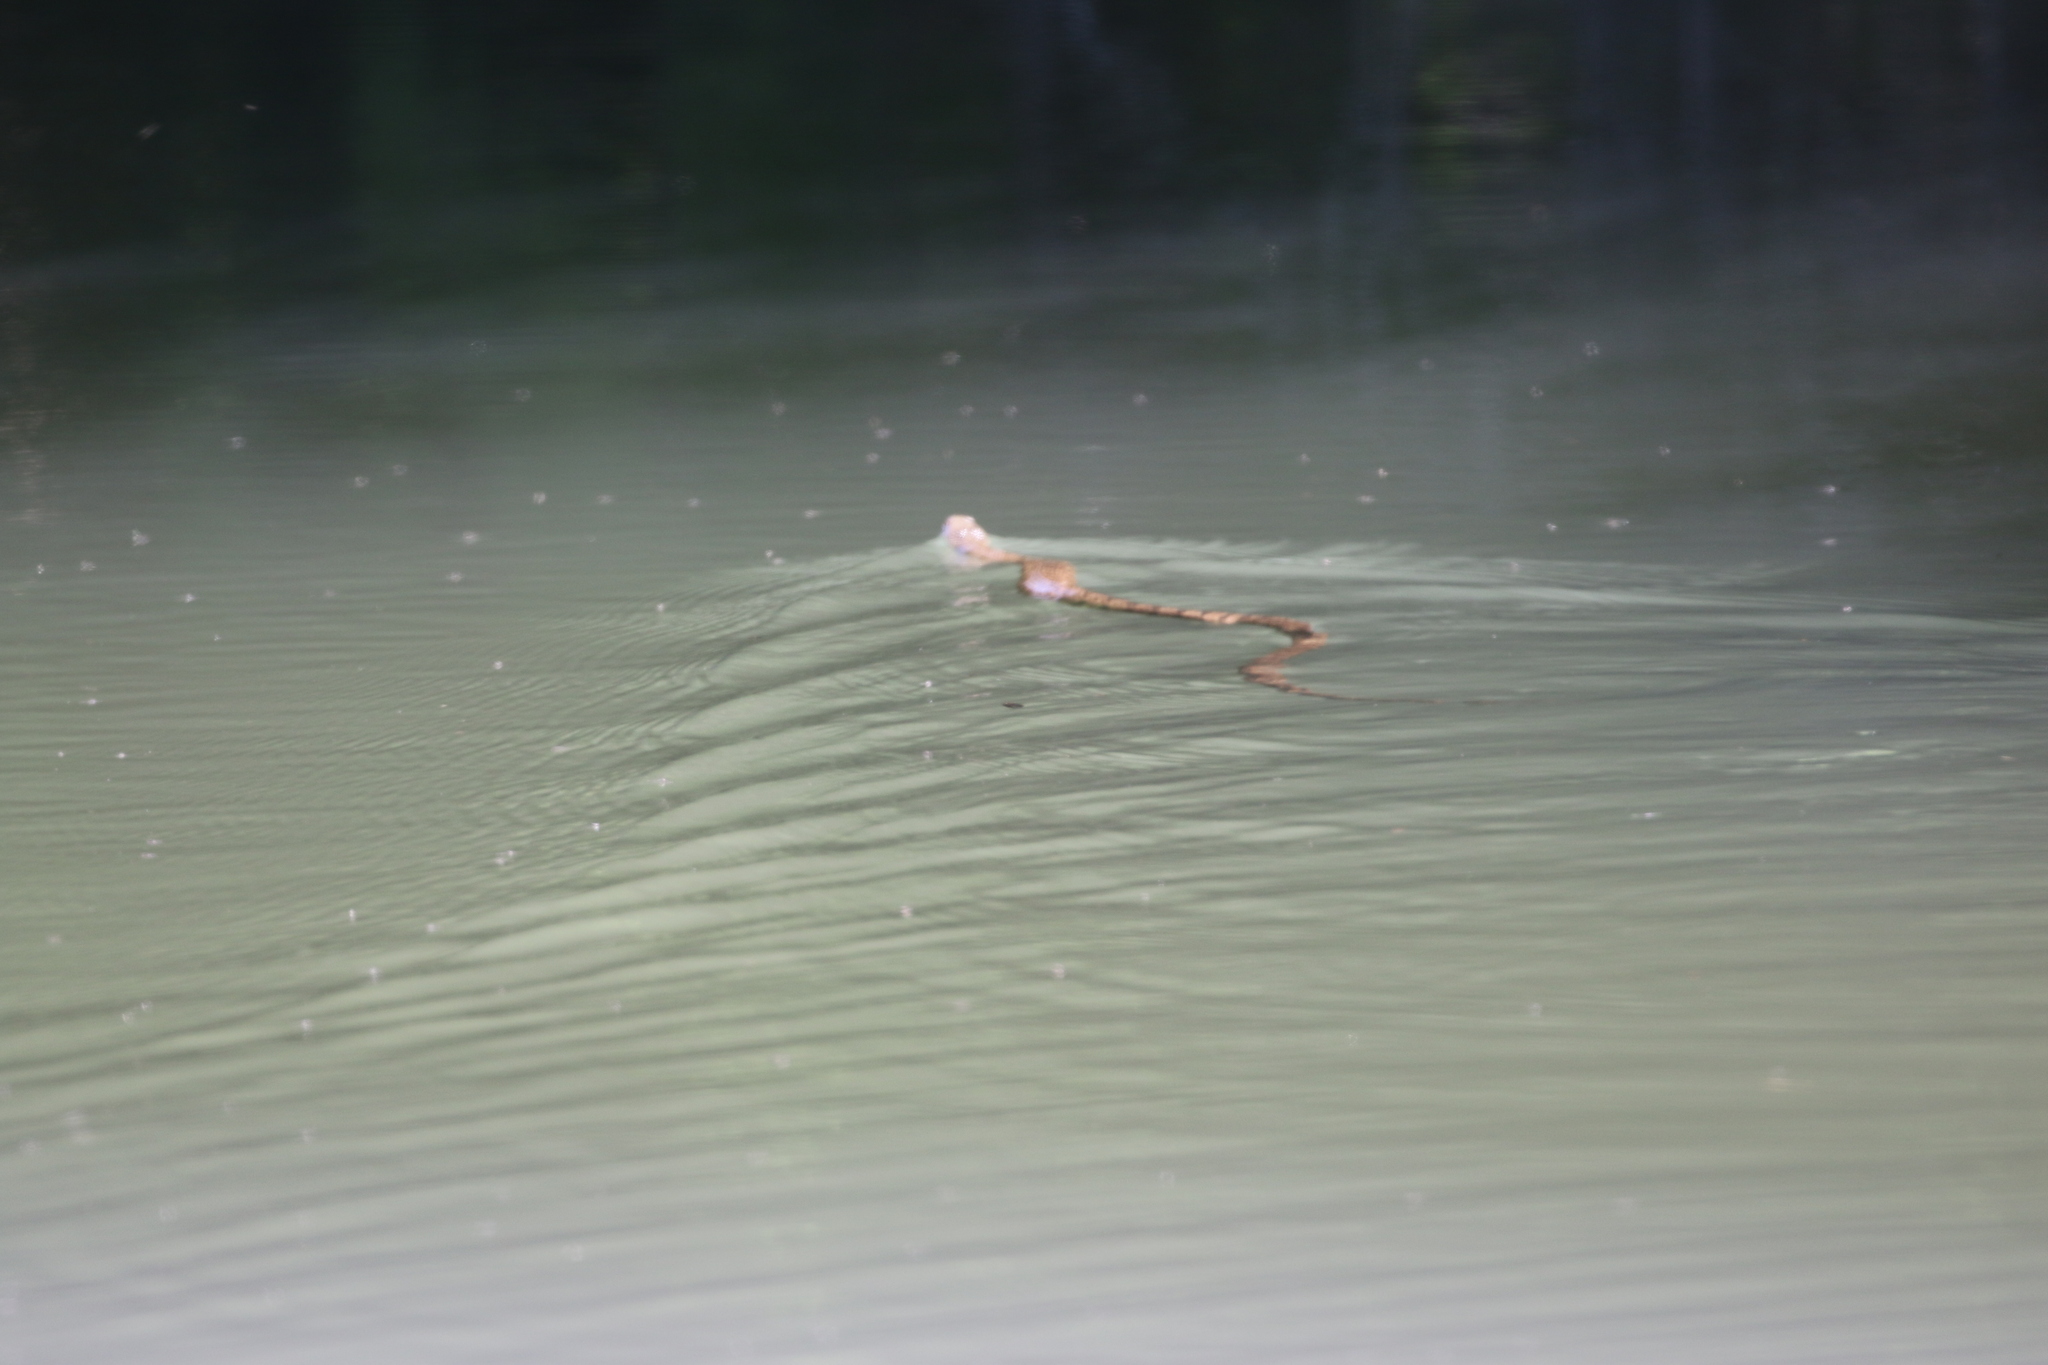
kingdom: Animalia
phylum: Chordata
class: Squamata
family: Colubridae
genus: Nerodia
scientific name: Nerodia rhombifer
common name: Diamondback water snake
